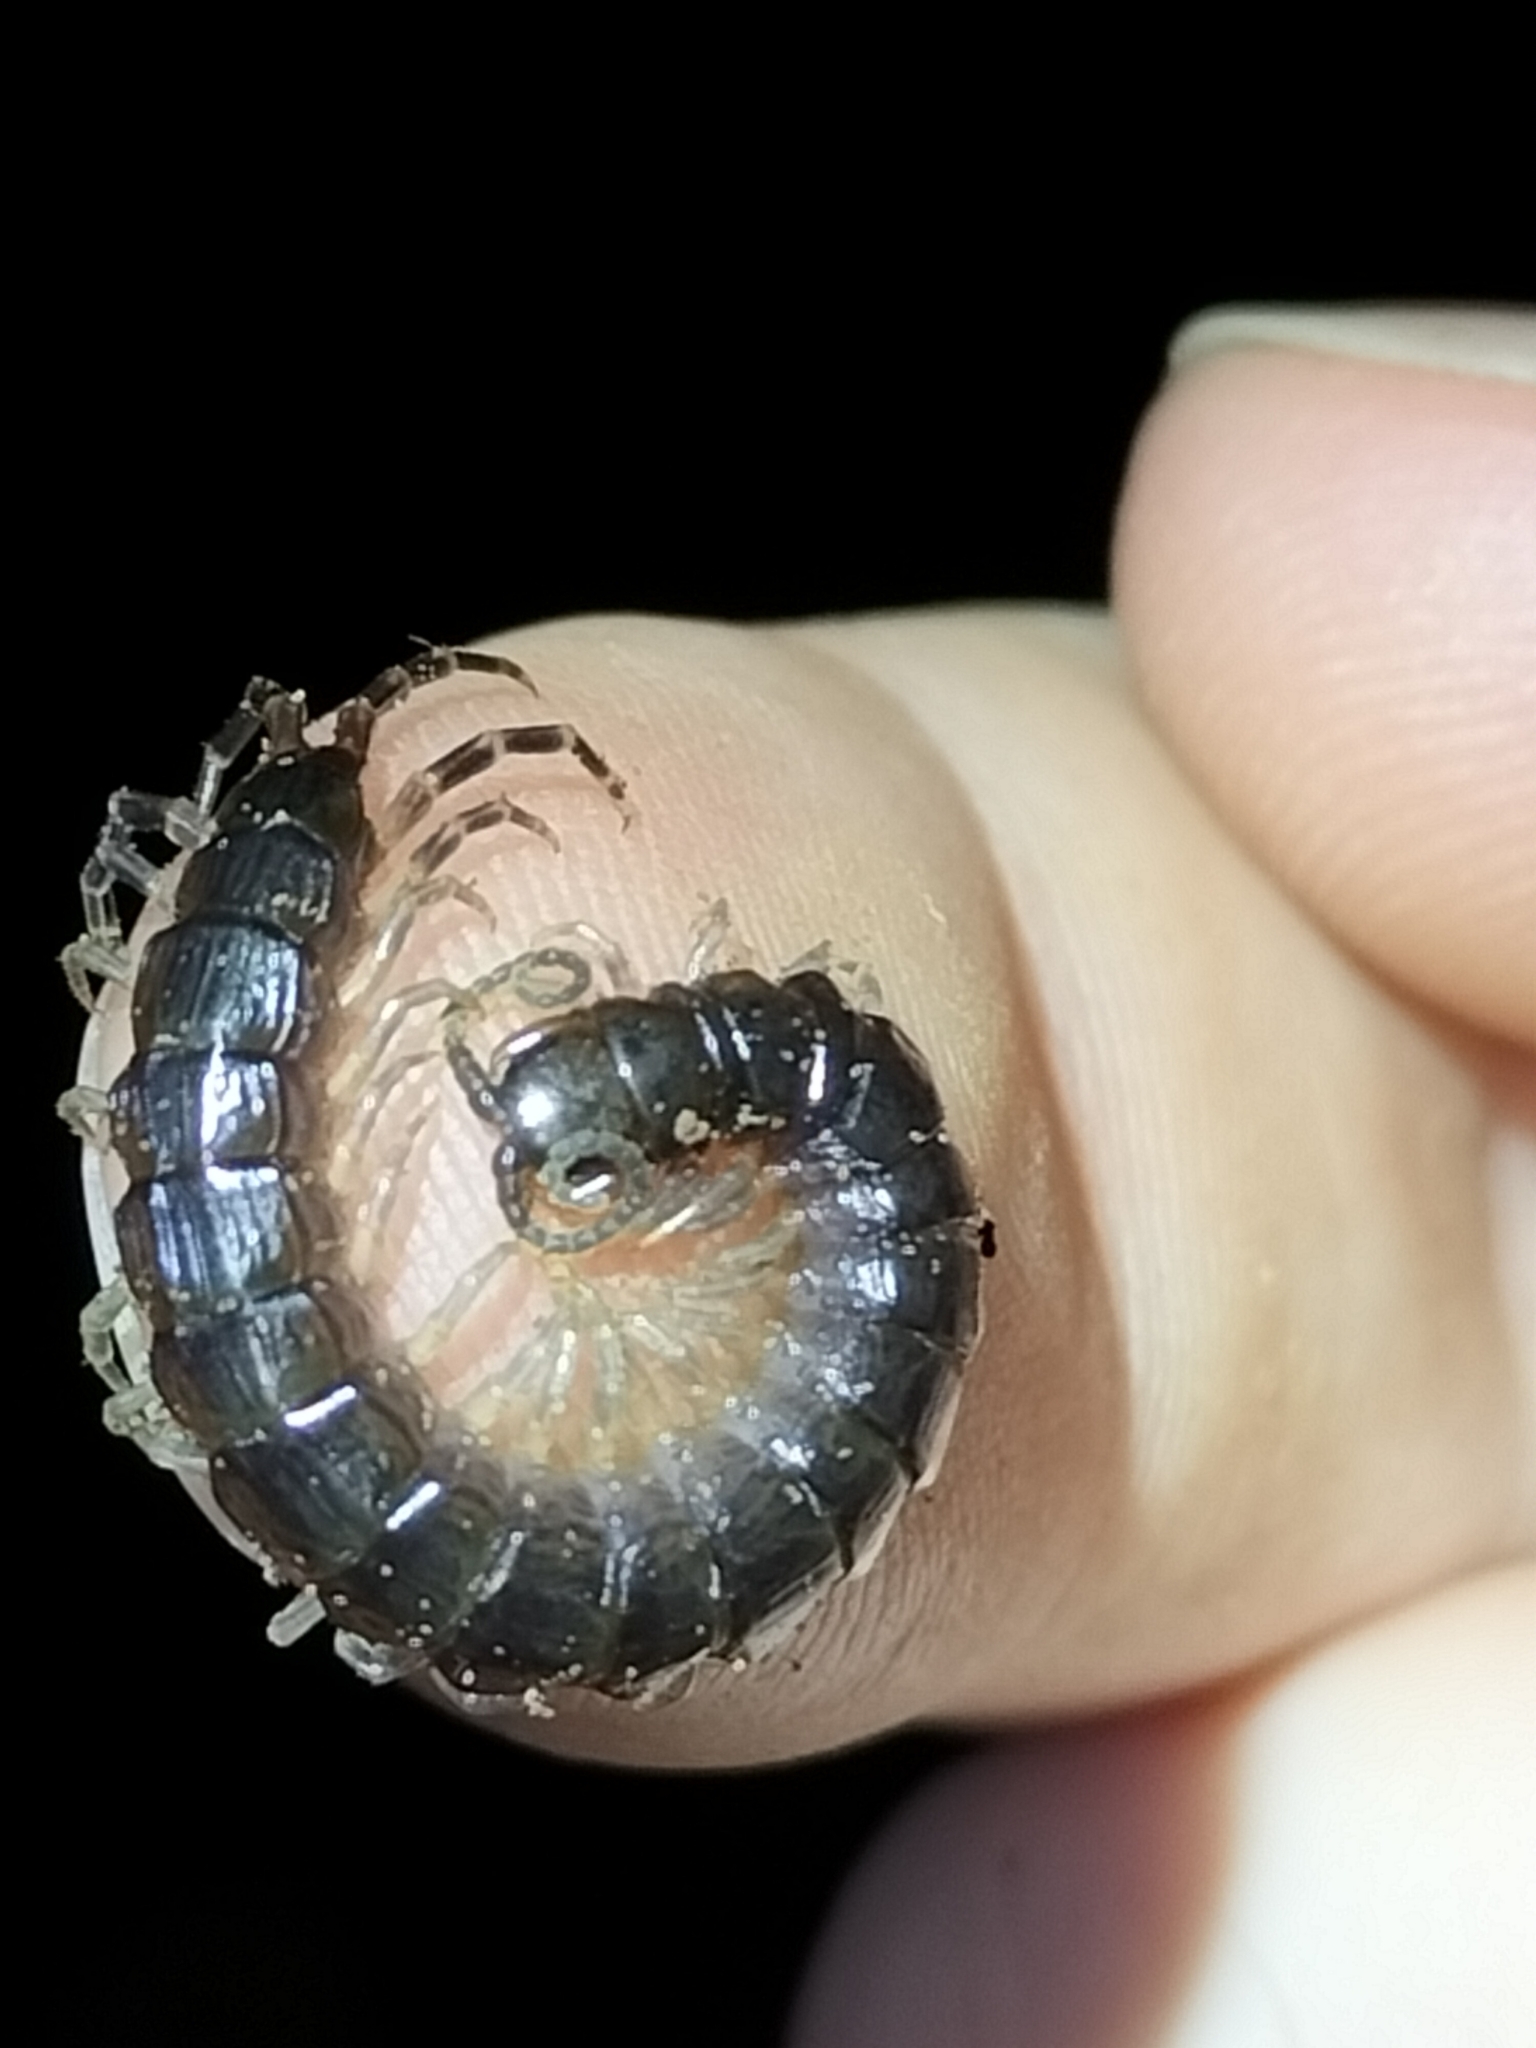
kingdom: Animalia
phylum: Arthropoda
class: Chilopoda
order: Scolopendromorpha
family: Scolopendridae
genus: Otostigmus
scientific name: Otostigmus ateles
